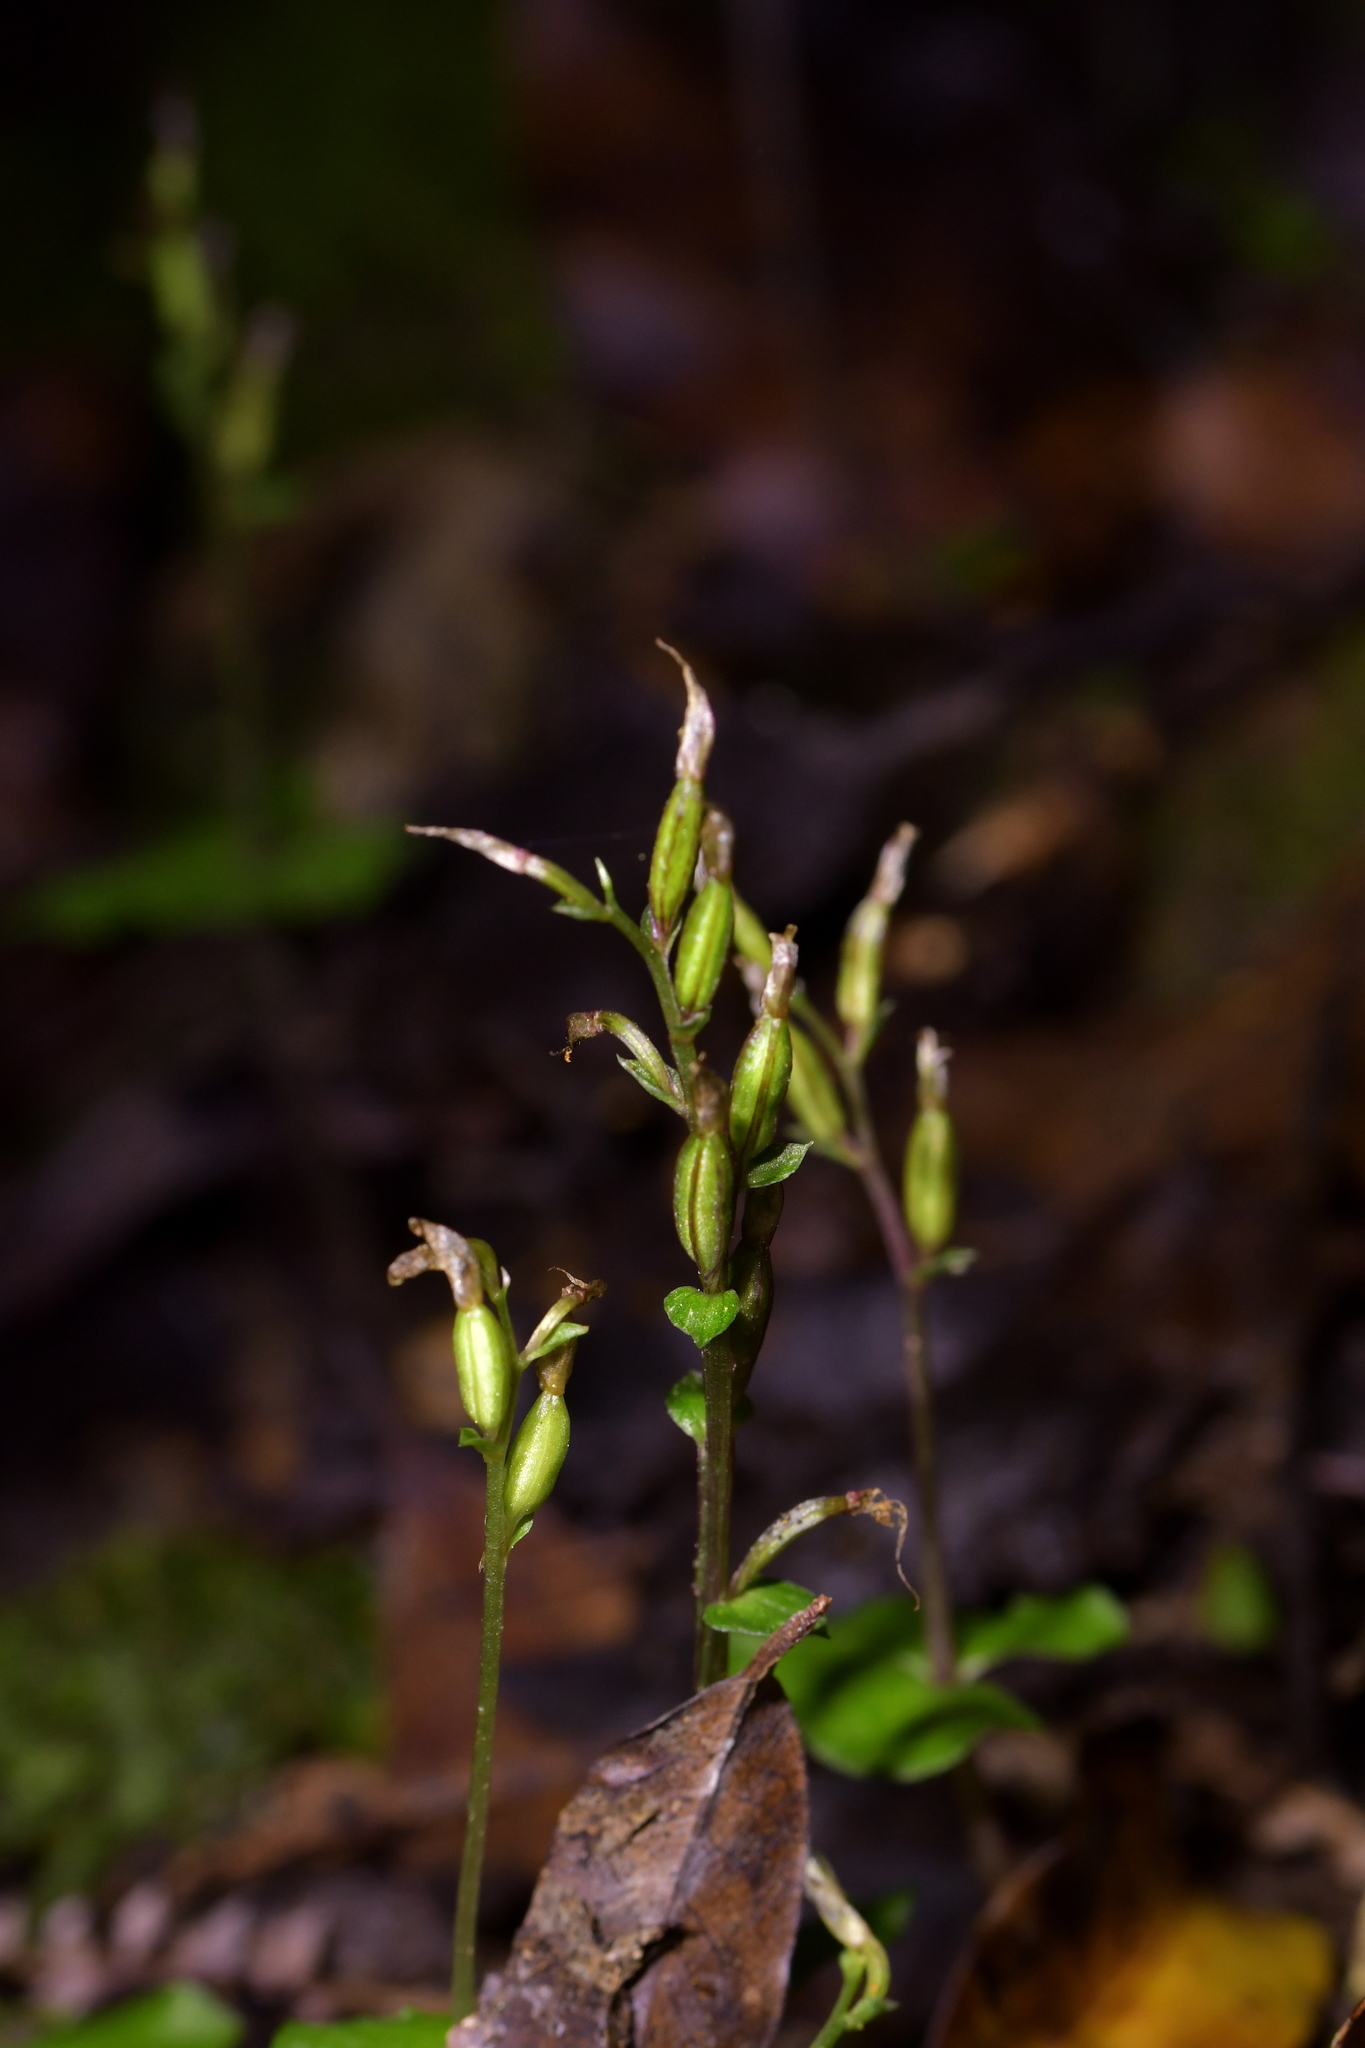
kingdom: Plantae
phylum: Tracheophyta
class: Liliopsida
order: Asparagales
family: Orchidaceae
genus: Acianthus
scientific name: Acianthus sinclairii
